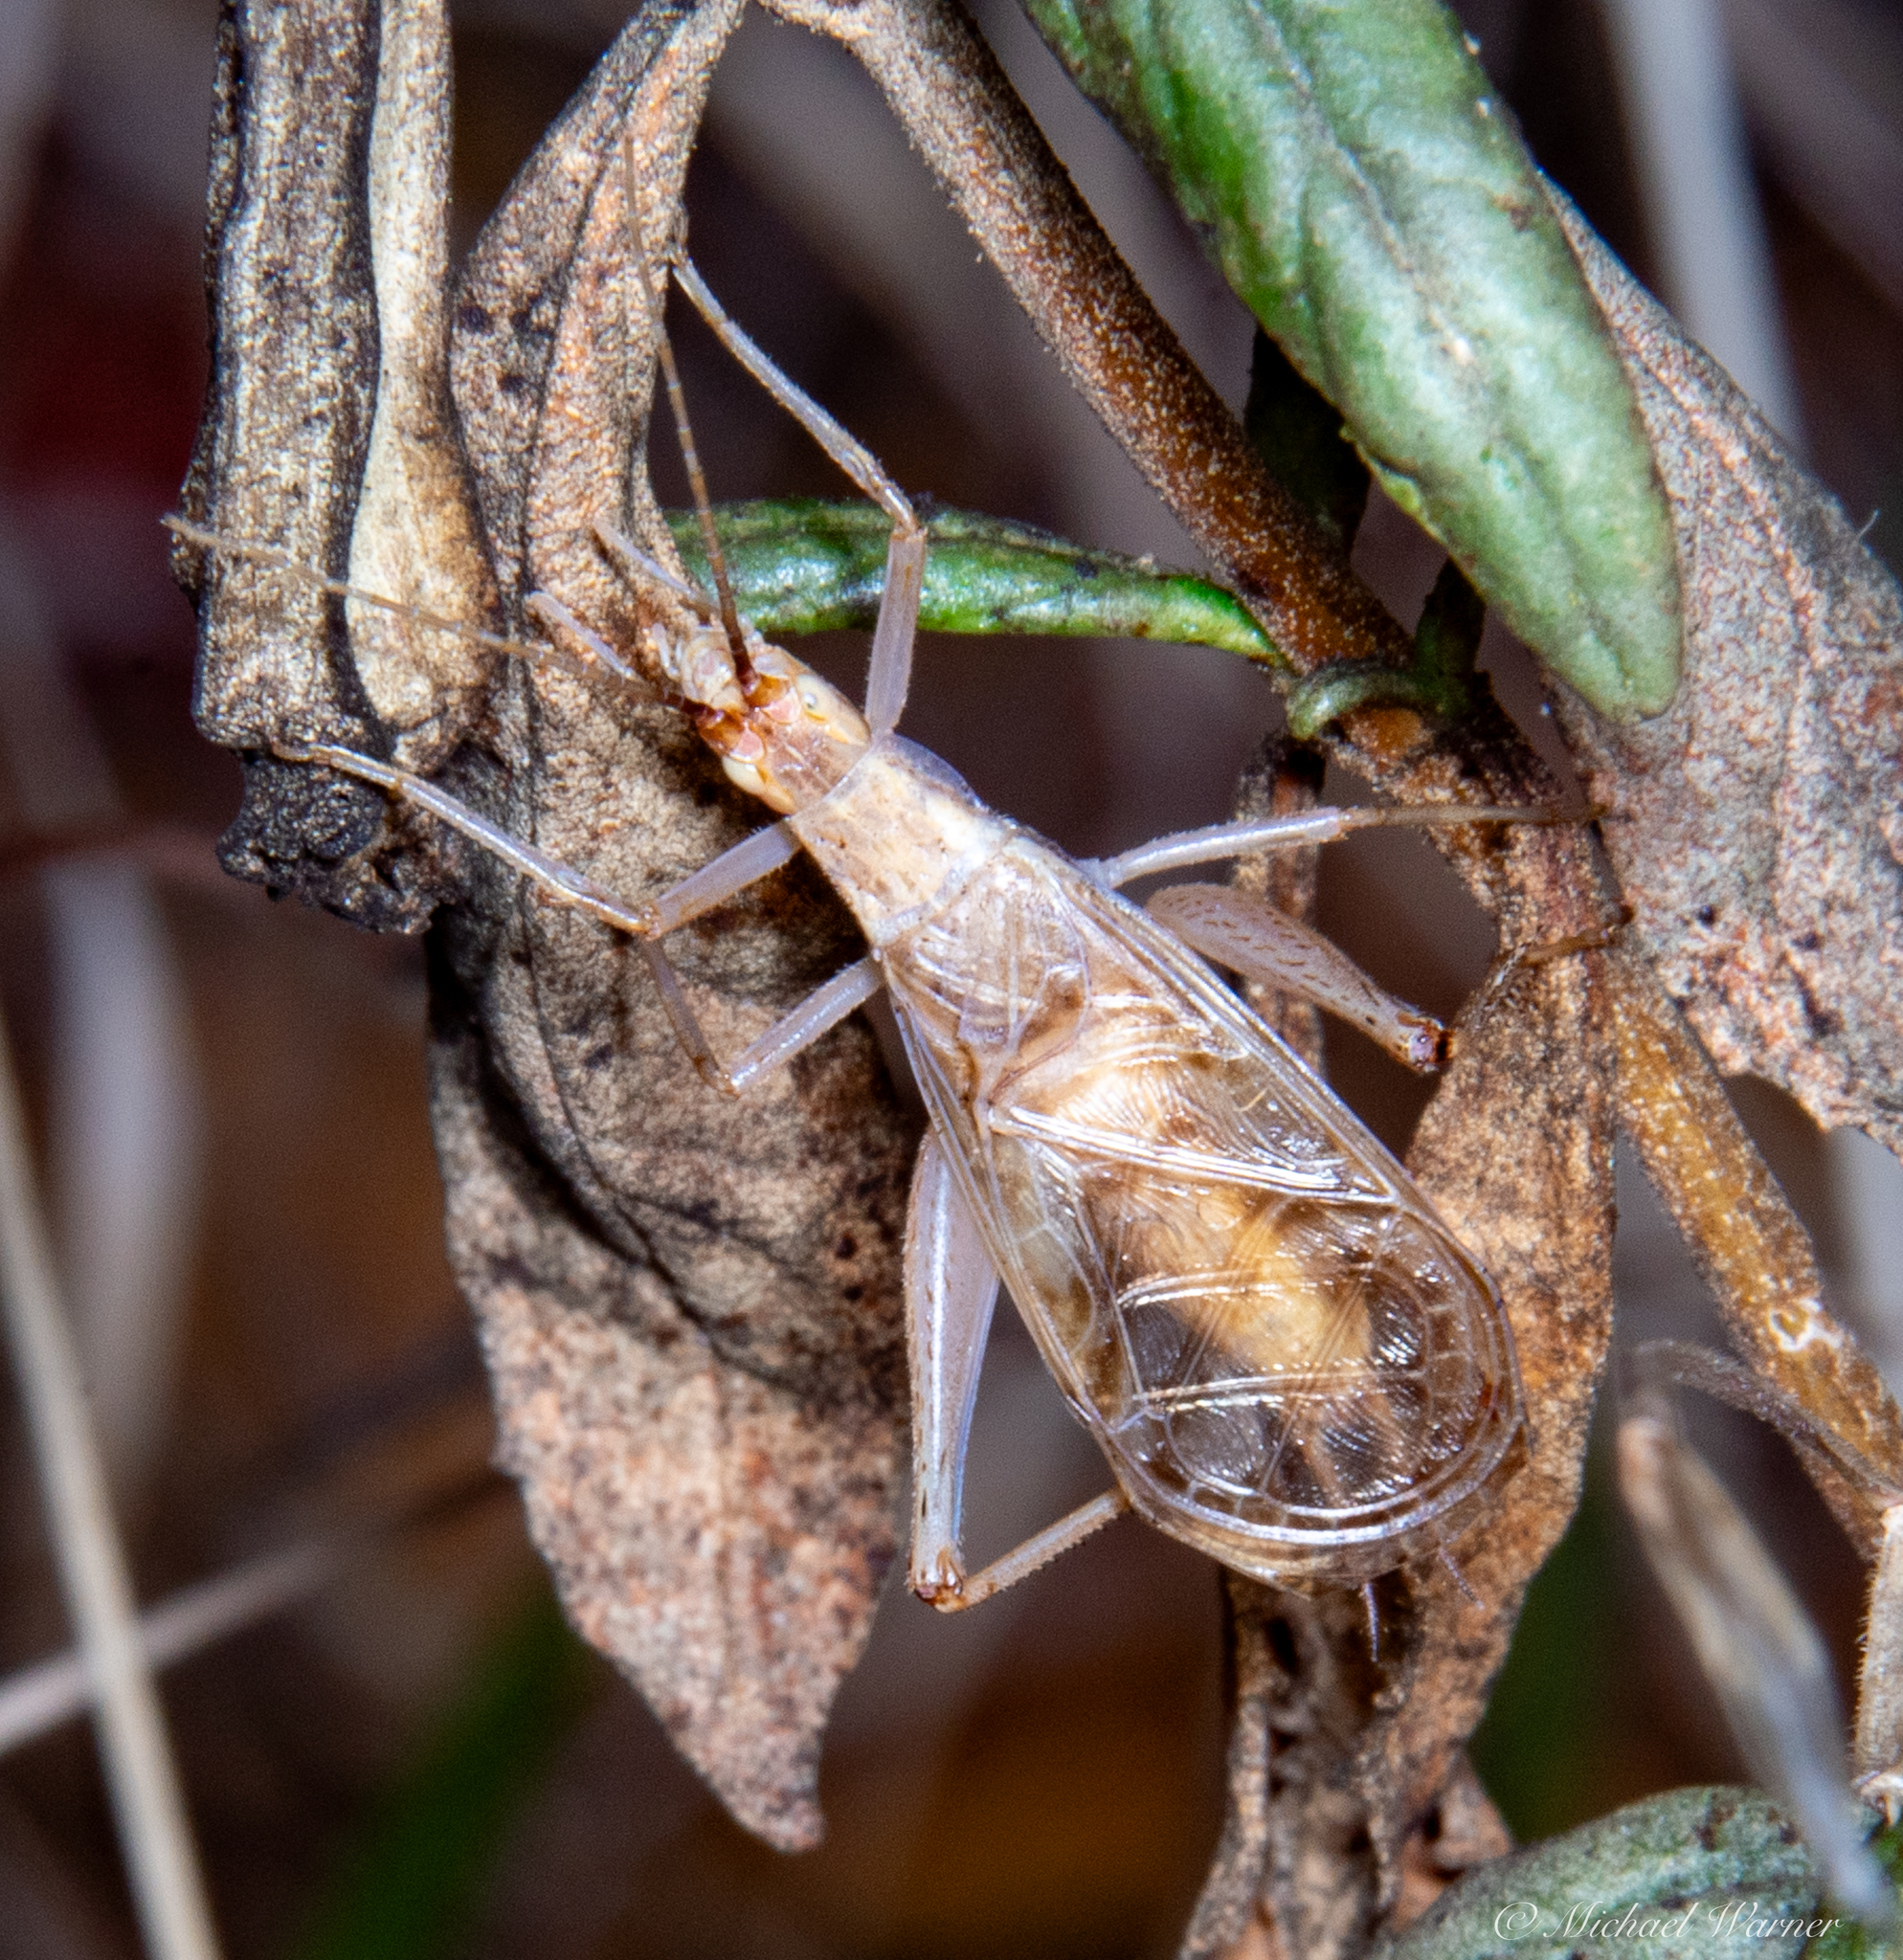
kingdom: Animalia
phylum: Arthropoda
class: Insecta
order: Orthoptera
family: Gryllidae
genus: Oecanthus
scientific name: Oecanthus californicus
